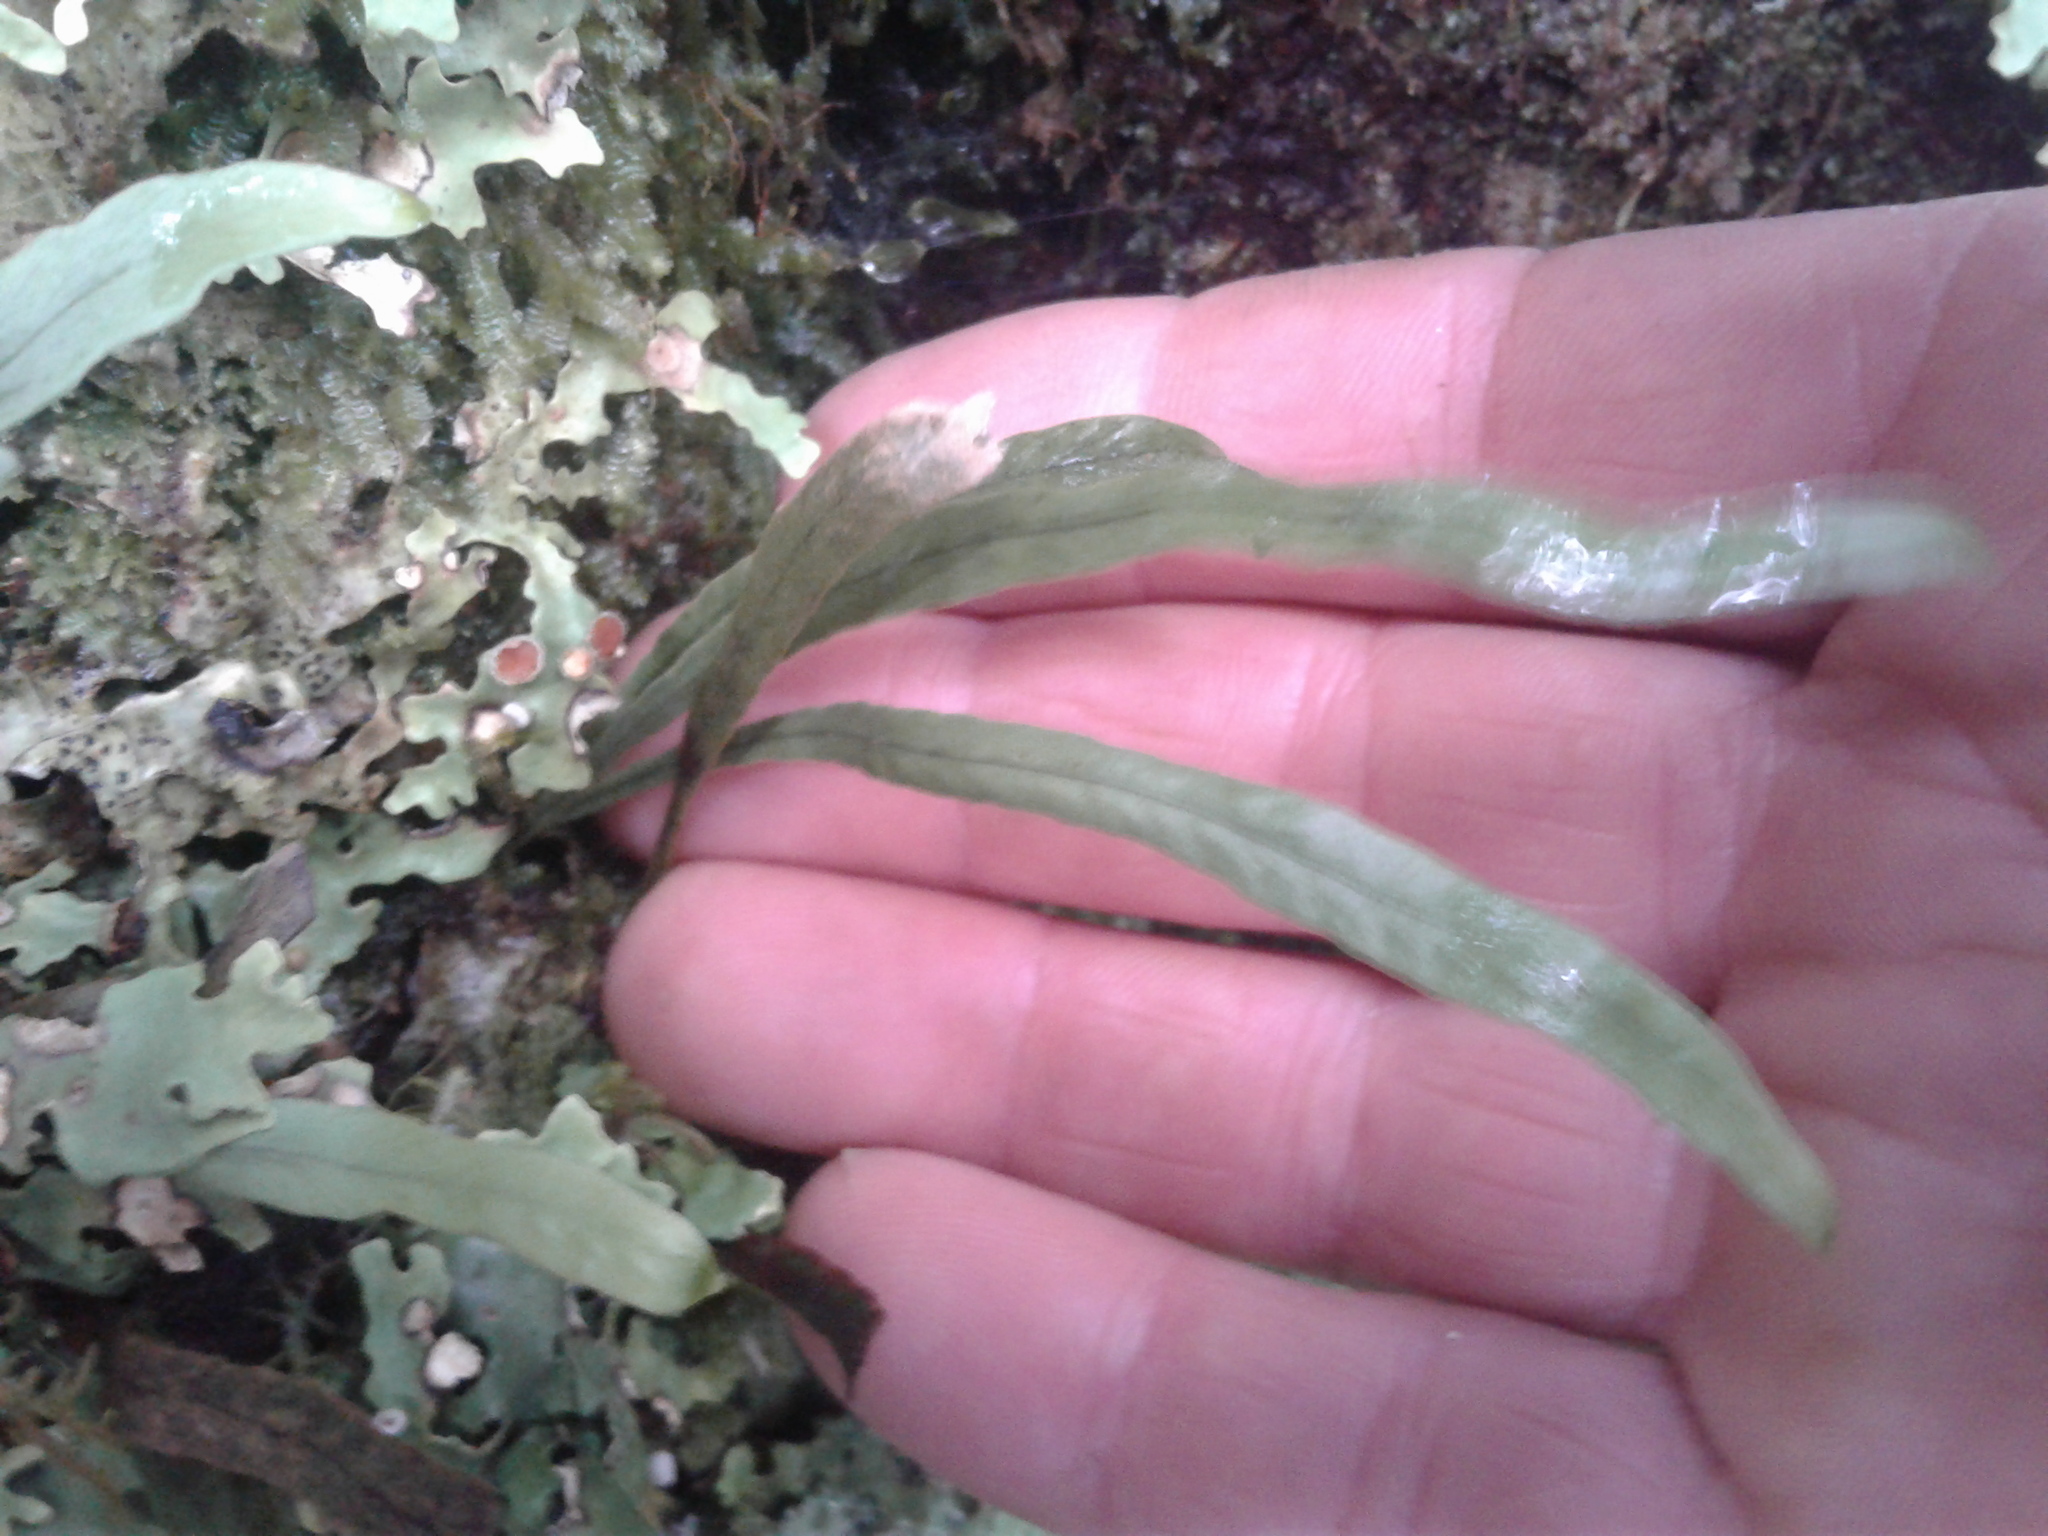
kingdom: Plantae
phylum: Tracheophyta
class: Polypodiopsida
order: Polypodiales
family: Polypodiaceae
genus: Notogrammitis
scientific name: Notogrammitis billardierei
